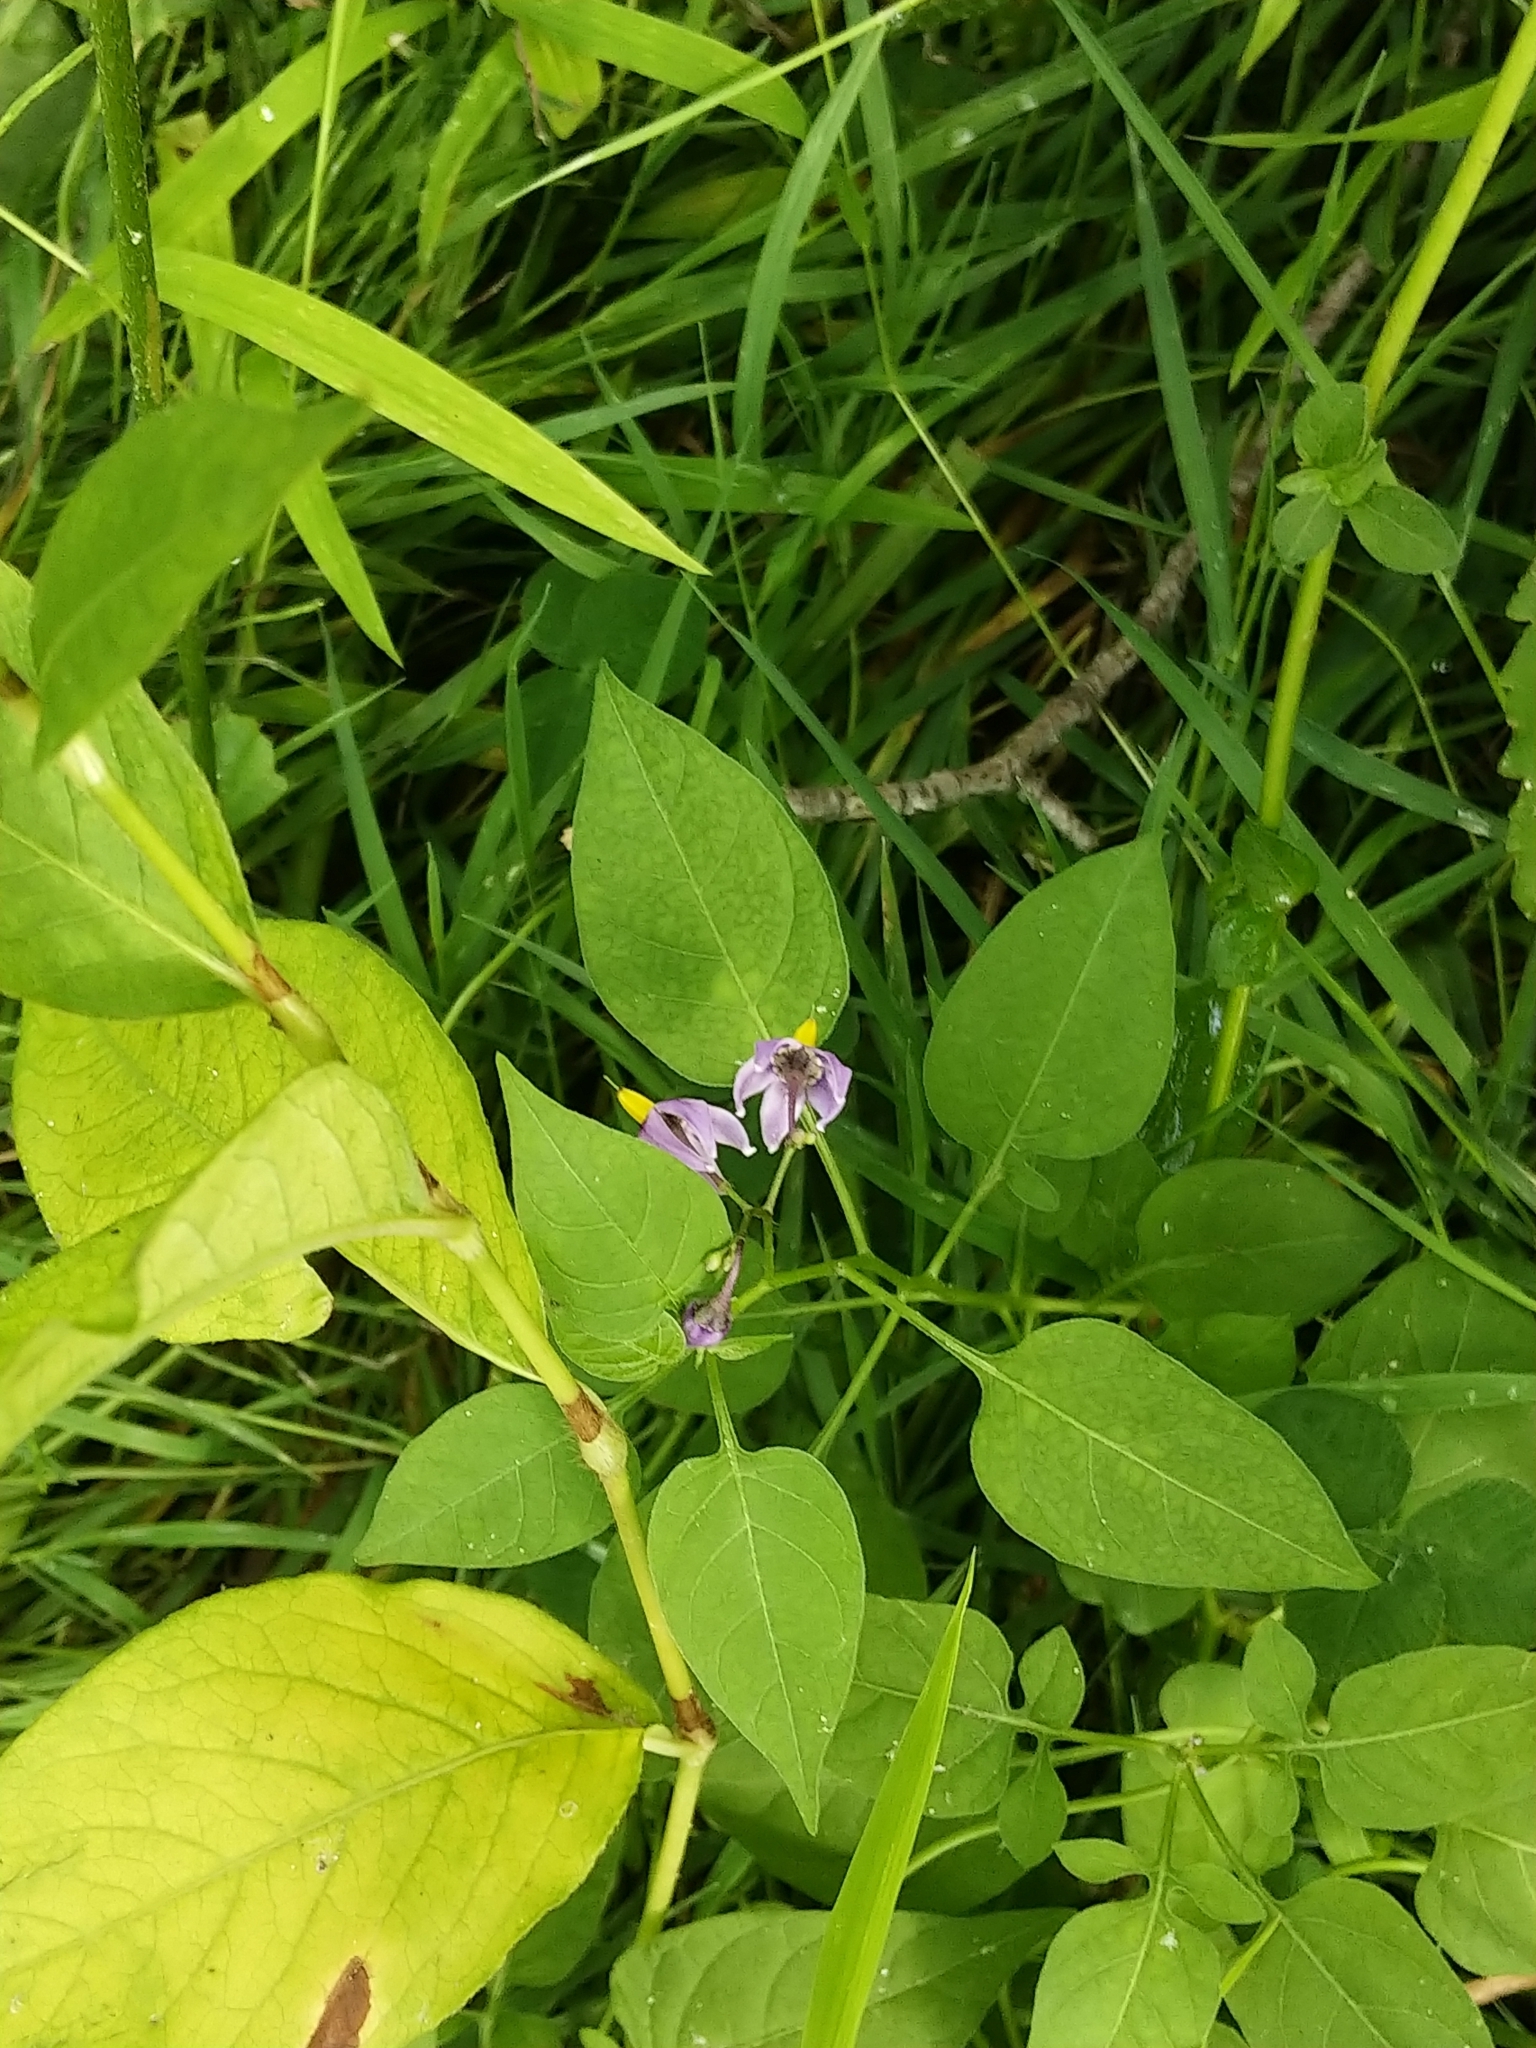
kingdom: Plantae
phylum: Tracheophyta
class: Magnoliopsida
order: Solanales
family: Solanaceae
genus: Solanum
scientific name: Solanum dulcamara
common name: Climbing nightshade
